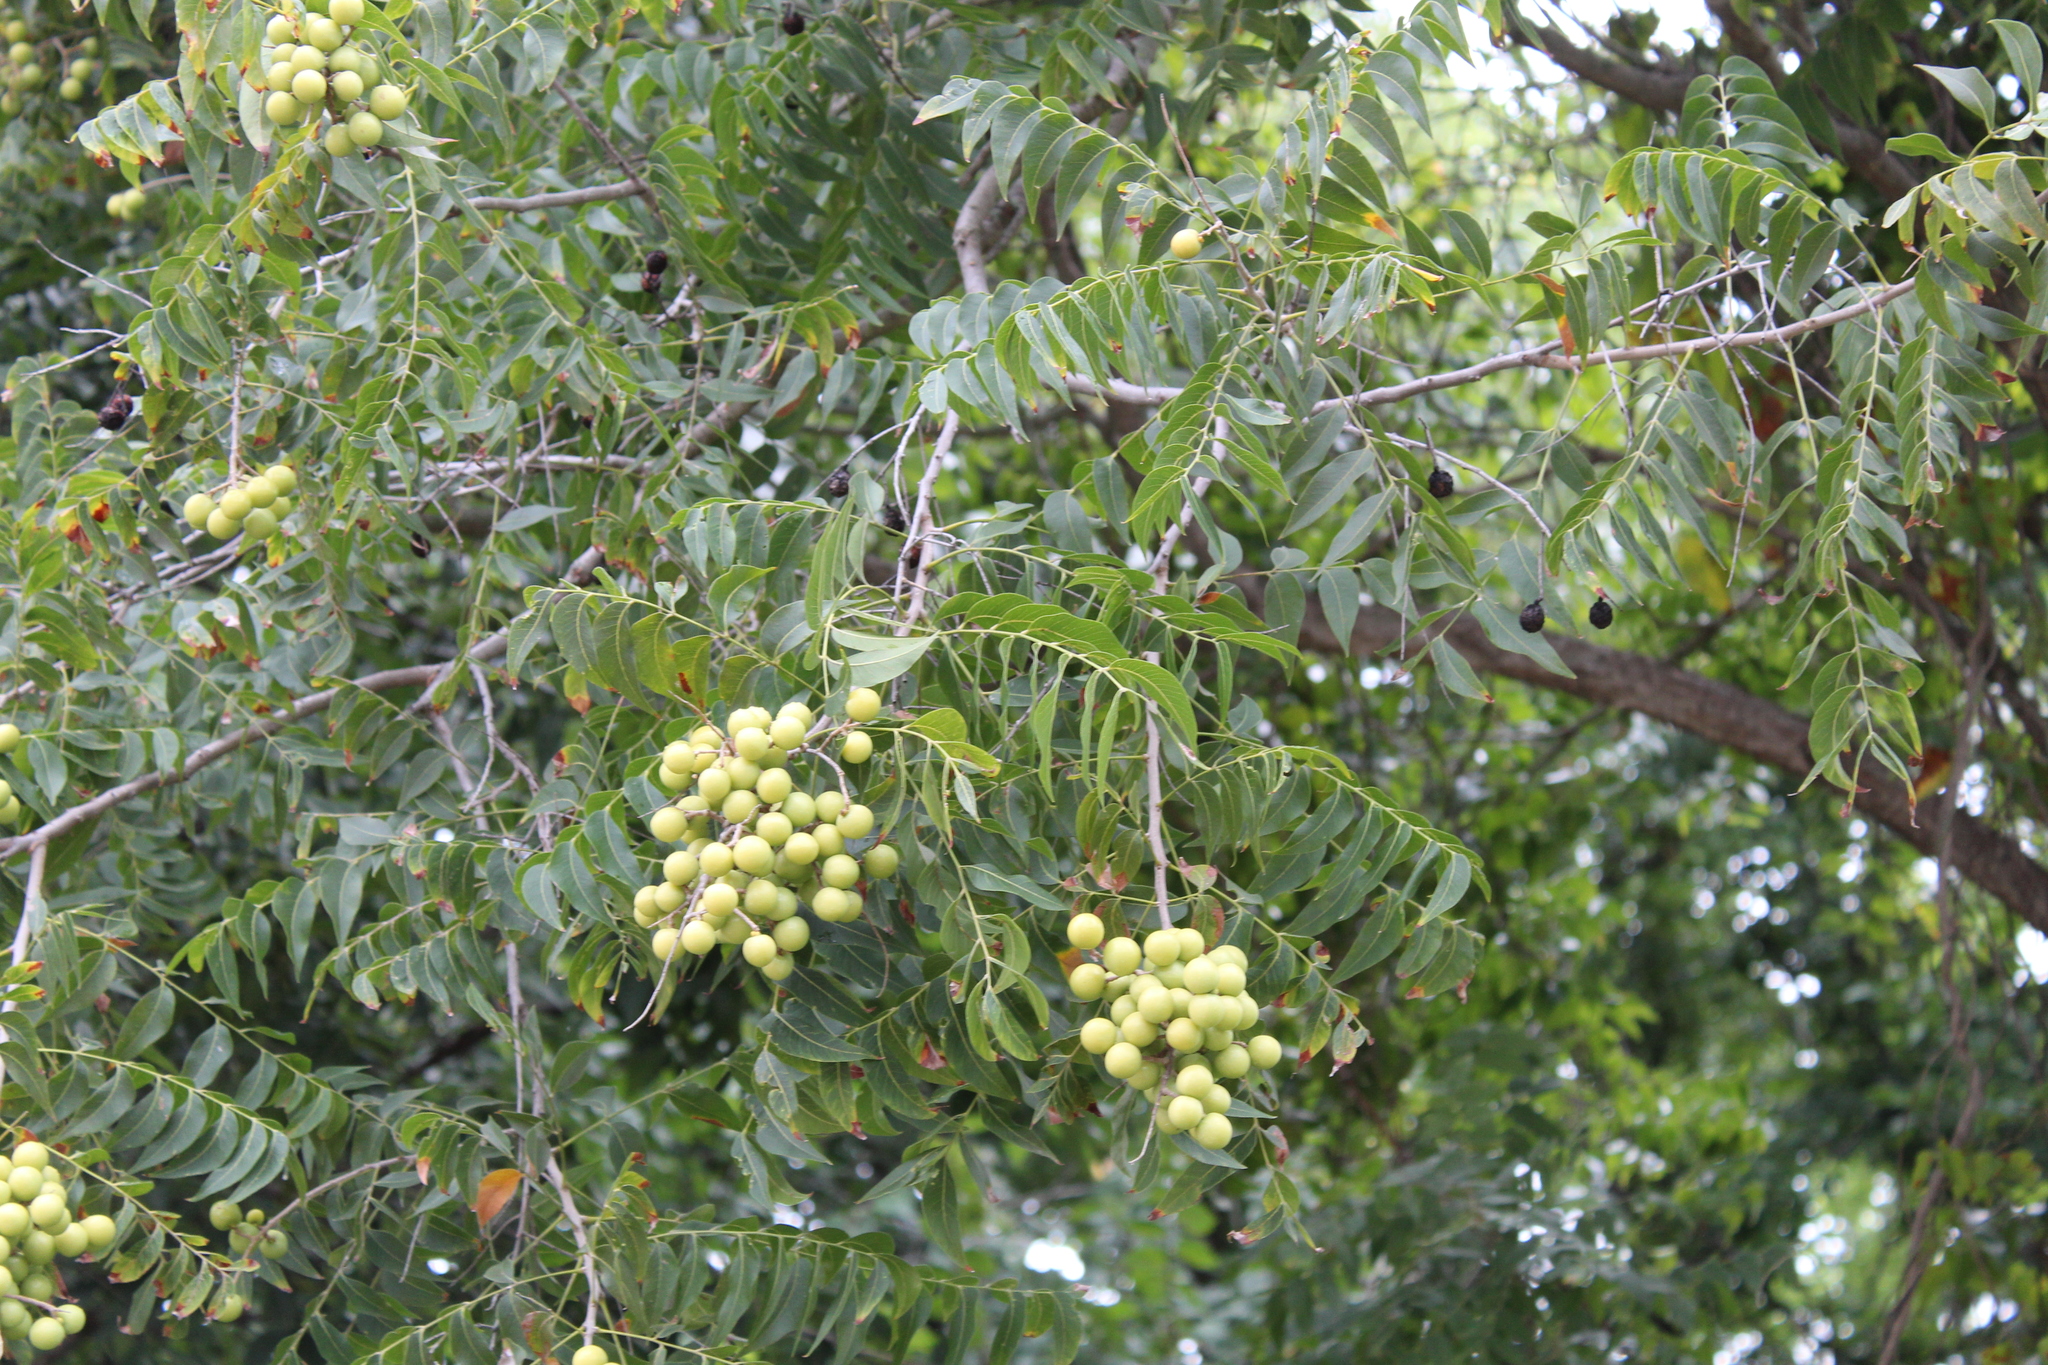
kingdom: Plantae
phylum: Tracheophyta
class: Magnoliopsida
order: Sapindales
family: Sapindaceae
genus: Sapindus
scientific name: Sapindus drummondii
